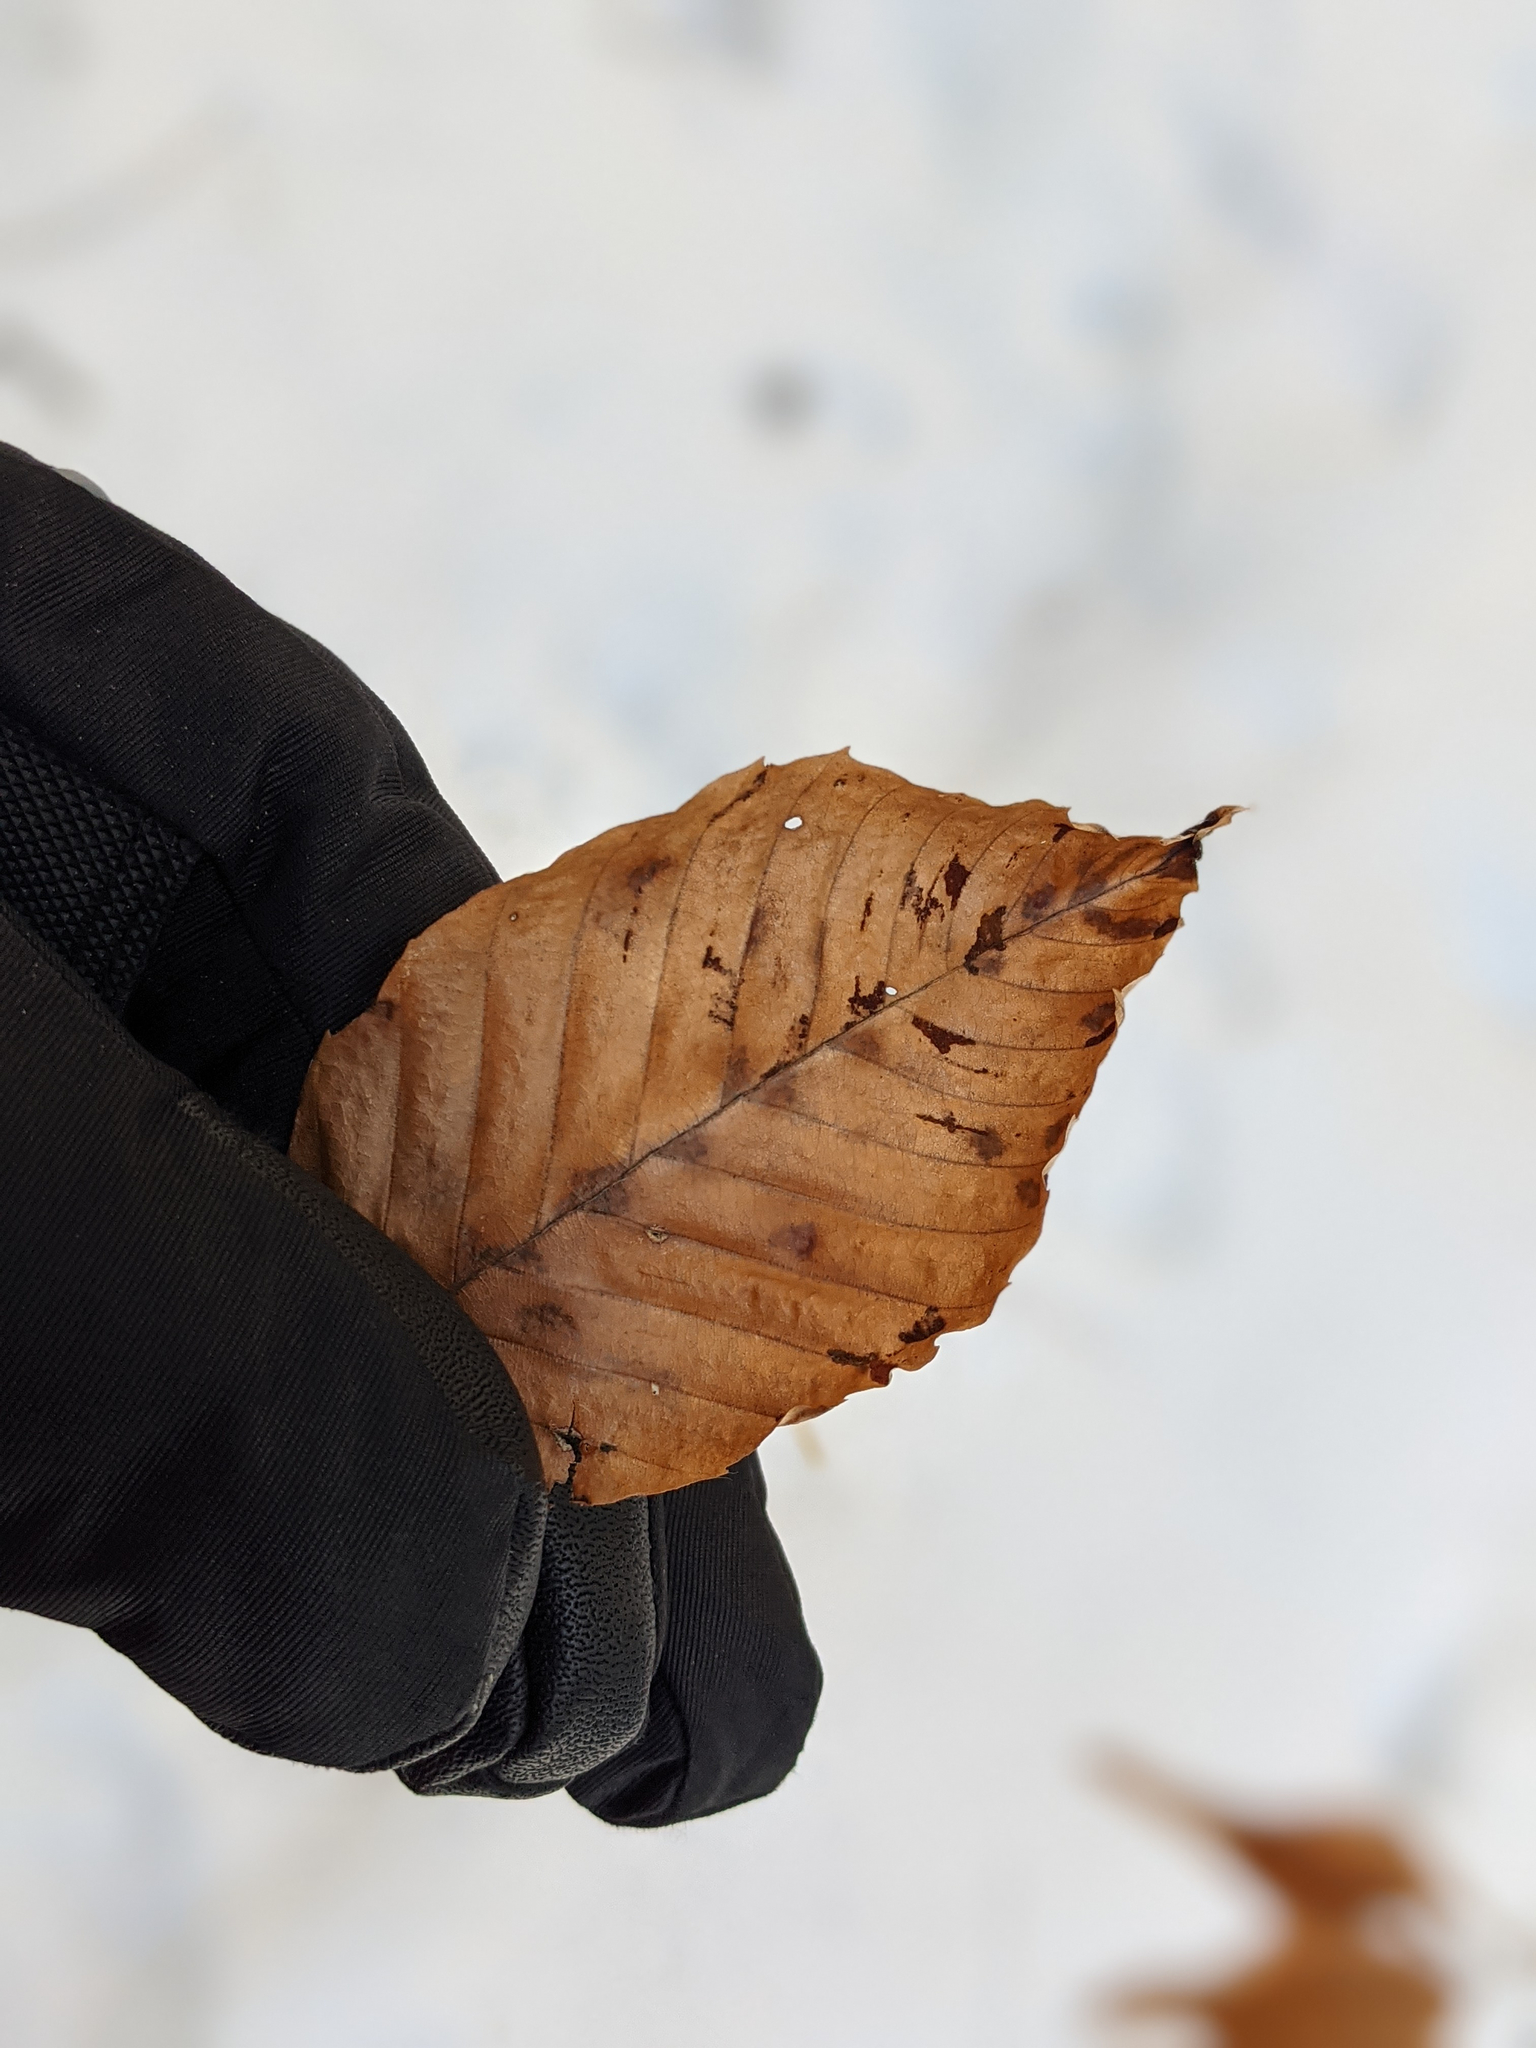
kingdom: Animalia
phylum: Arthropoda
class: Arachnida
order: Trombidiformes
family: Eriophyidae
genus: Acalitus
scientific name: Acalitus
